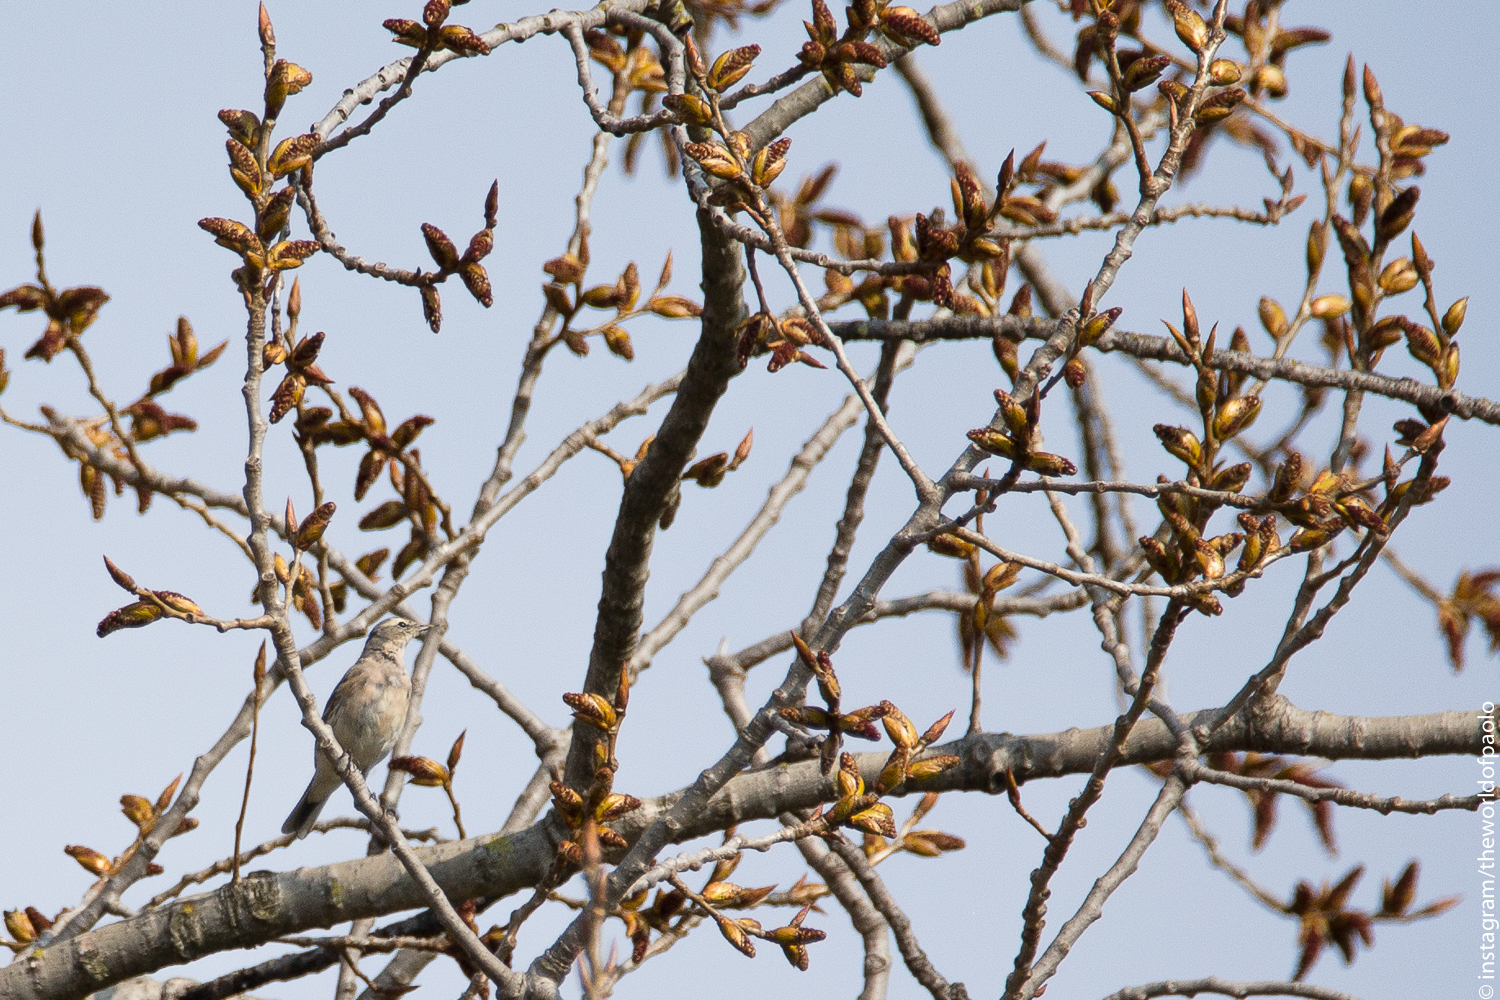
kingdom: Animalia
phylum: Chordata
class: Aves
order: Passeriformes
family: Motacillidae
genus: Anthus
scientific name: Anthus spinoletta
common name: Water pipit
